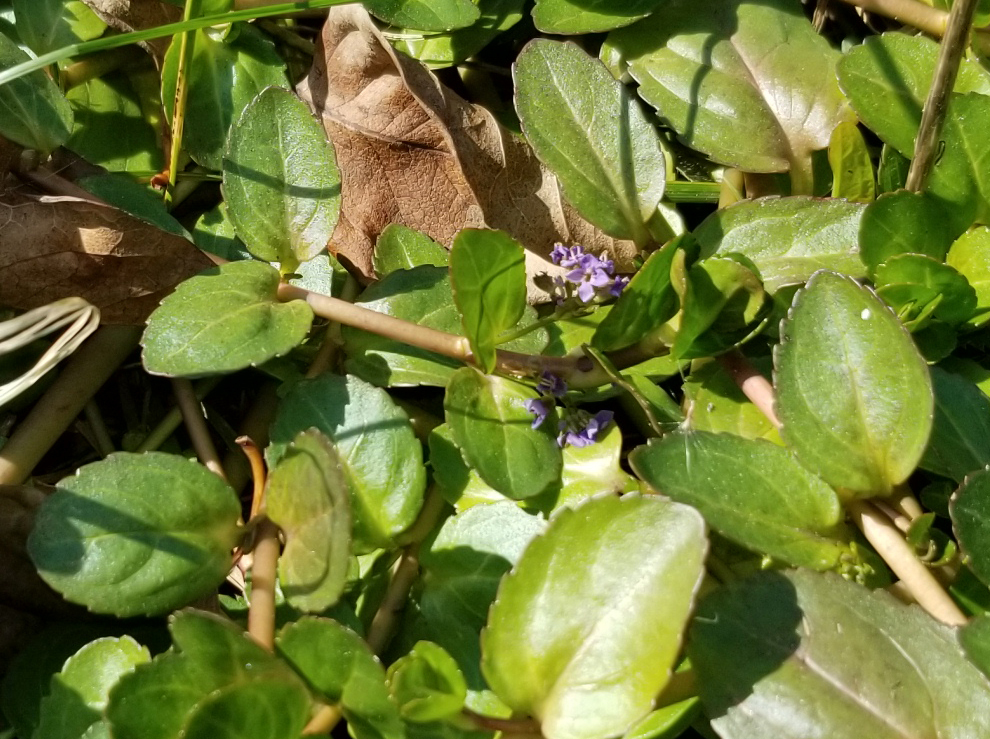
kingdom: Plantae
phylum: Tracheophyta
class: Magnoliopsida
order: Lamiales
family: Plantaginaceae
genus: Veronica
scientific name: Veronica beccabunga
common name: Brooklime
